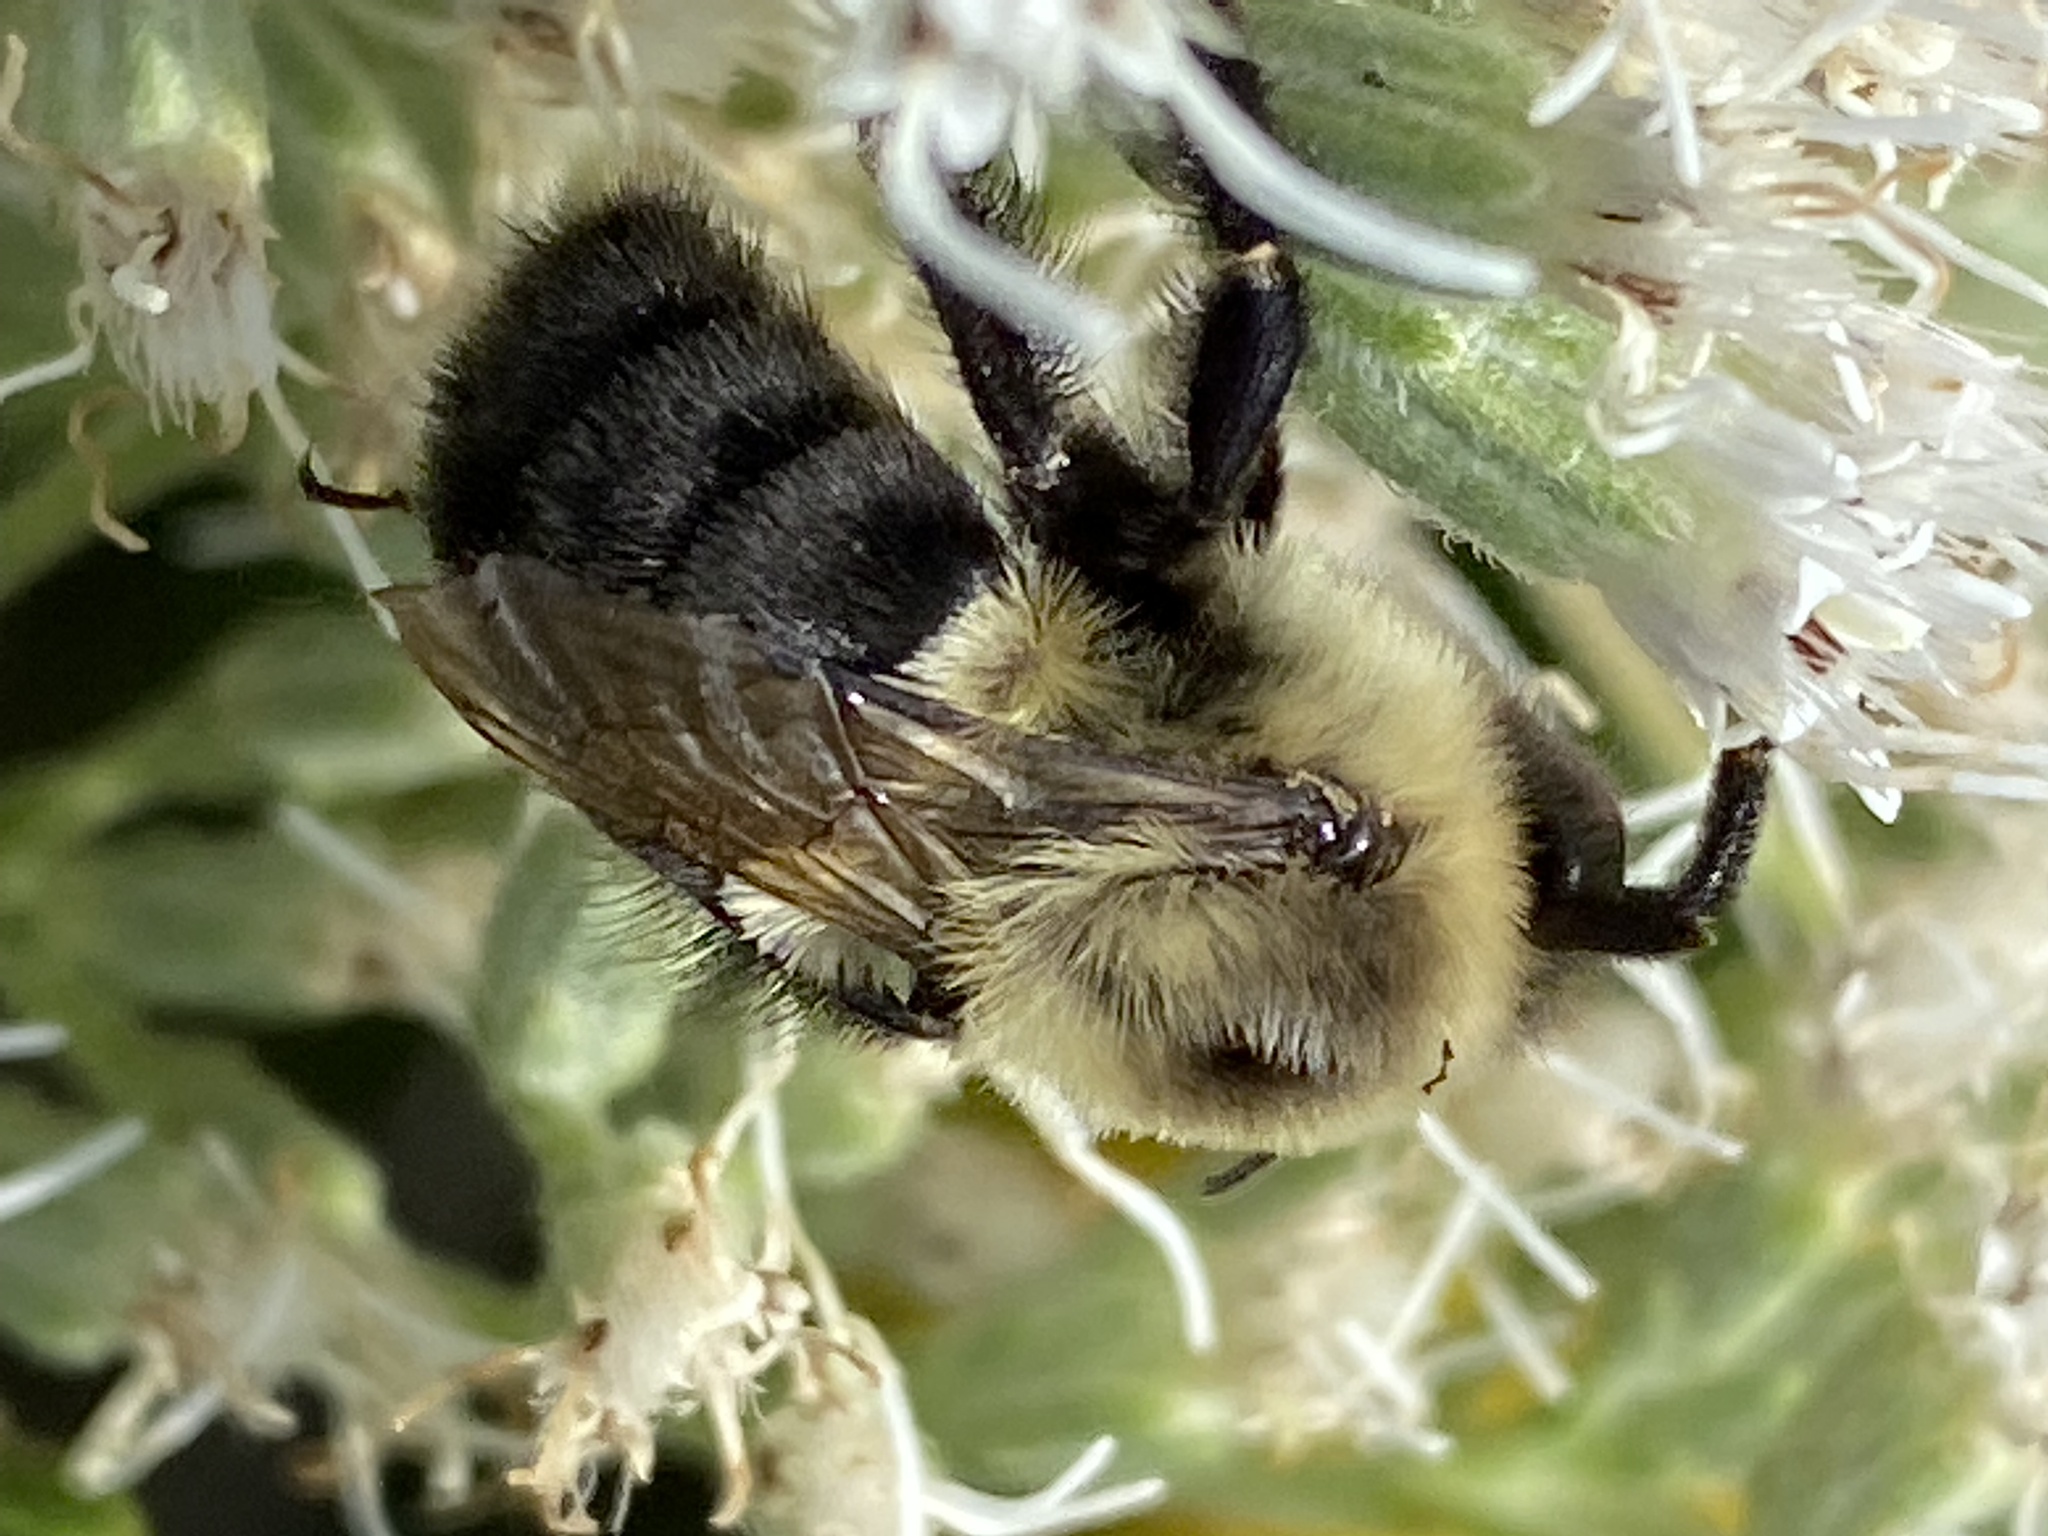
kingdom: Animalia
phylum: Arthropoda
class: Insecta
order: Hymenoptera
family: Apidae
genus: Bombus
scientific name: Bombus impatiens
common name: Common eastern bumble bee
